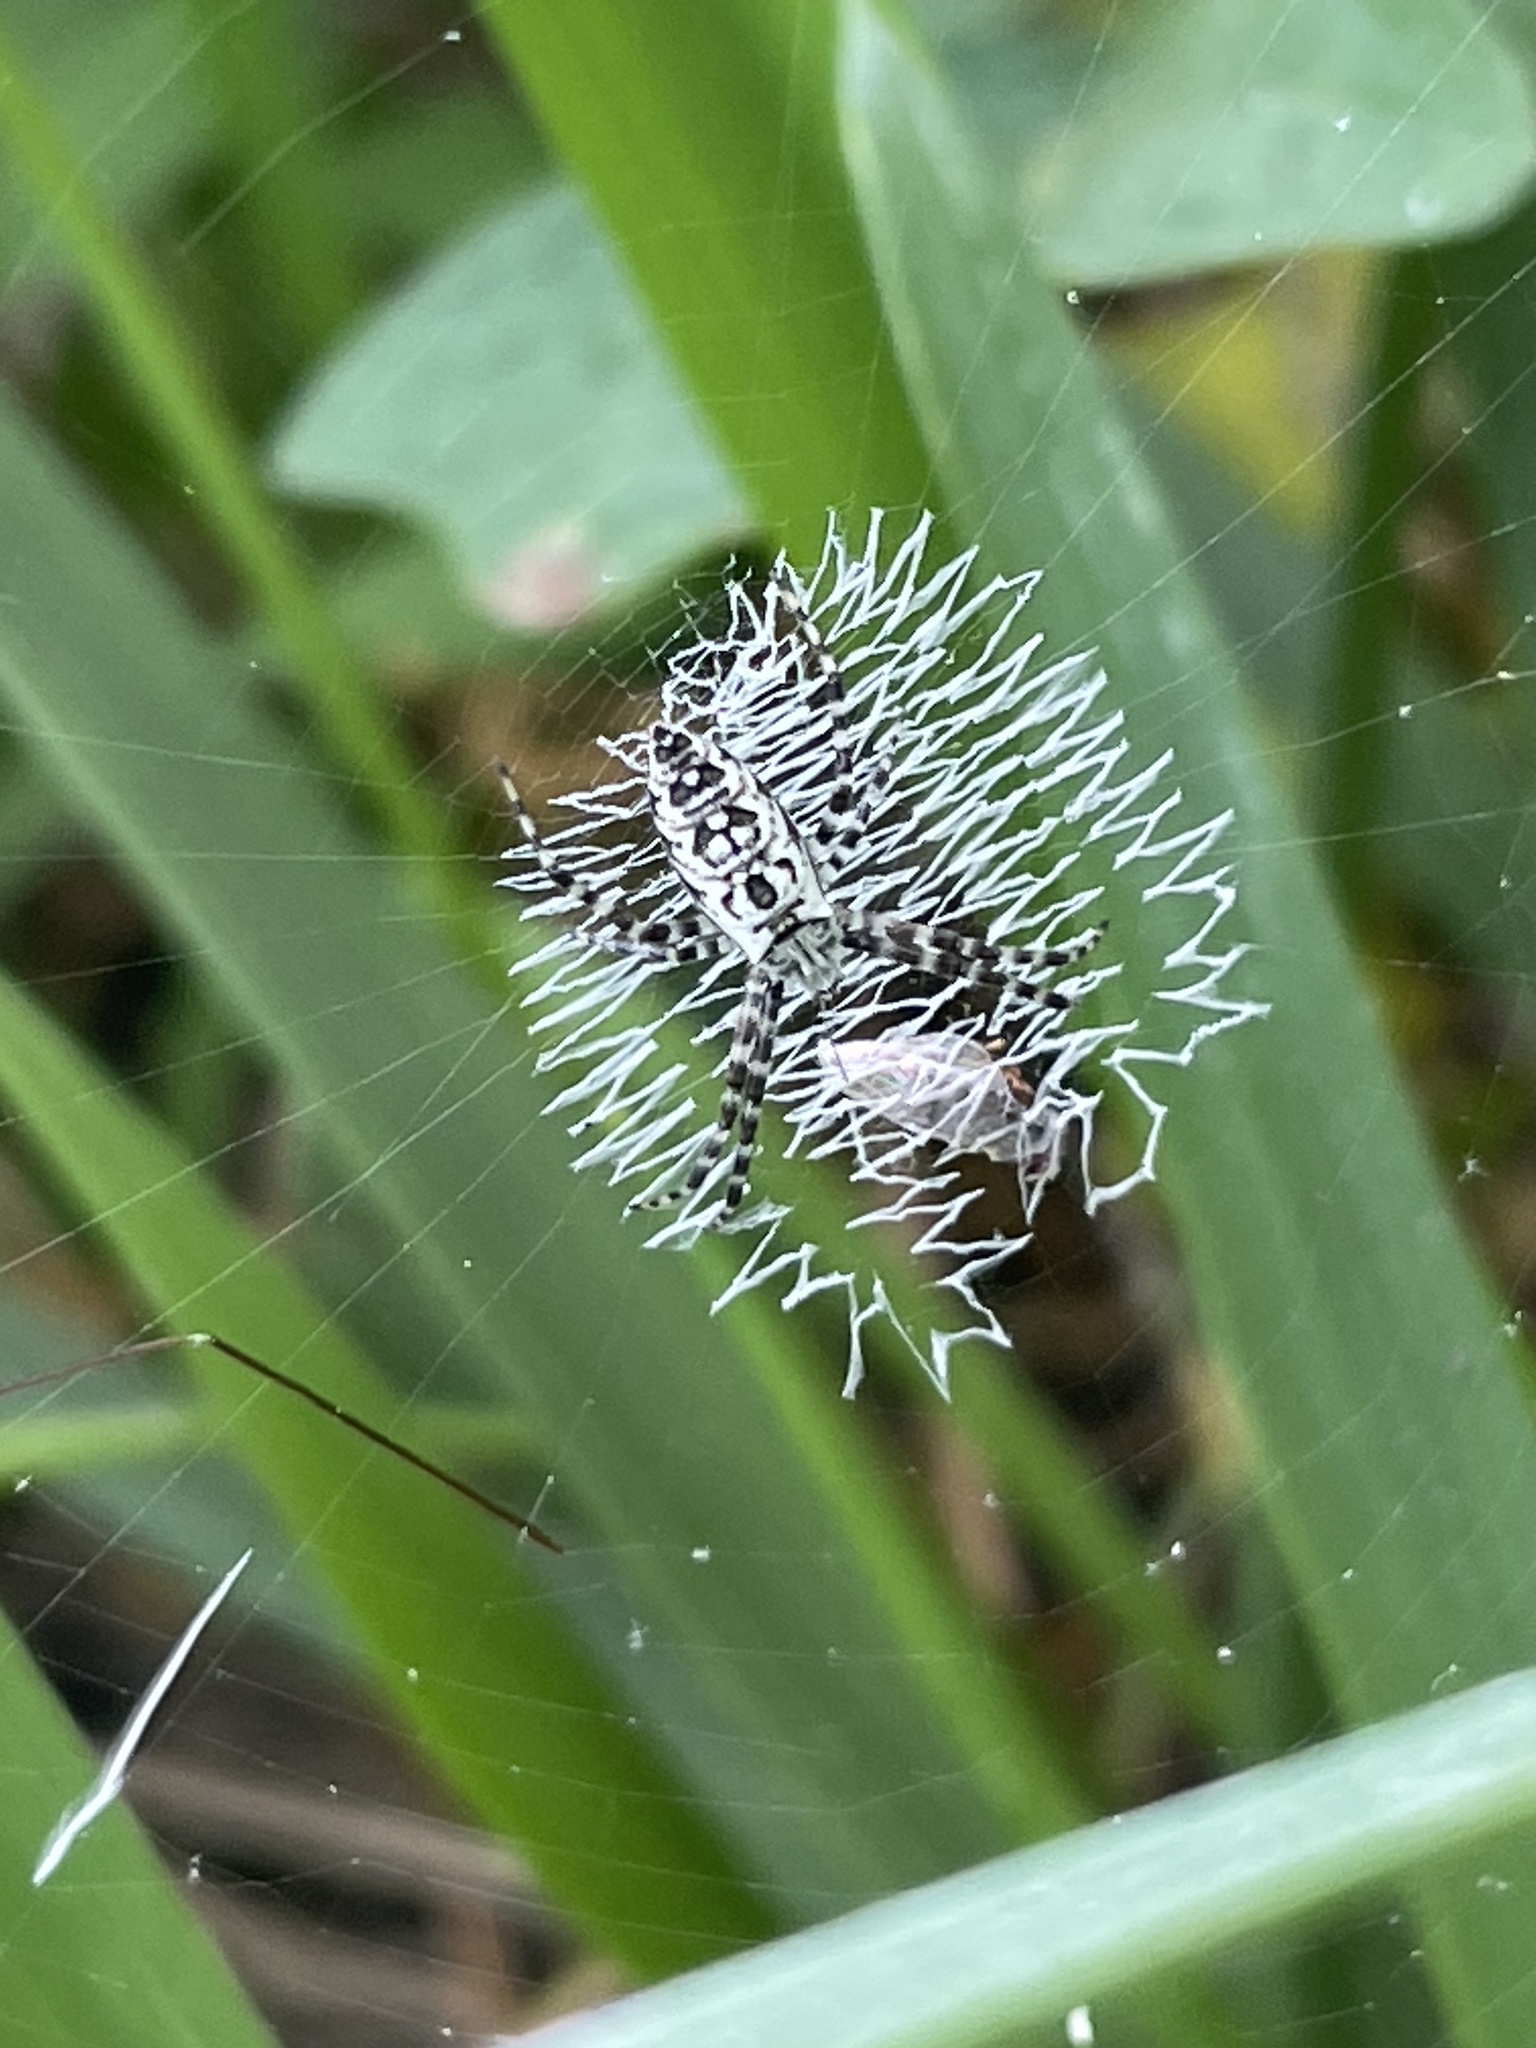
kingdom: Animalia
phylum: Arthropoda
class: Arachnida
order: Araneae
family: Araneidae
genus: Argiope
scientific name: Argiope aurantia
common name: Orb weavers
